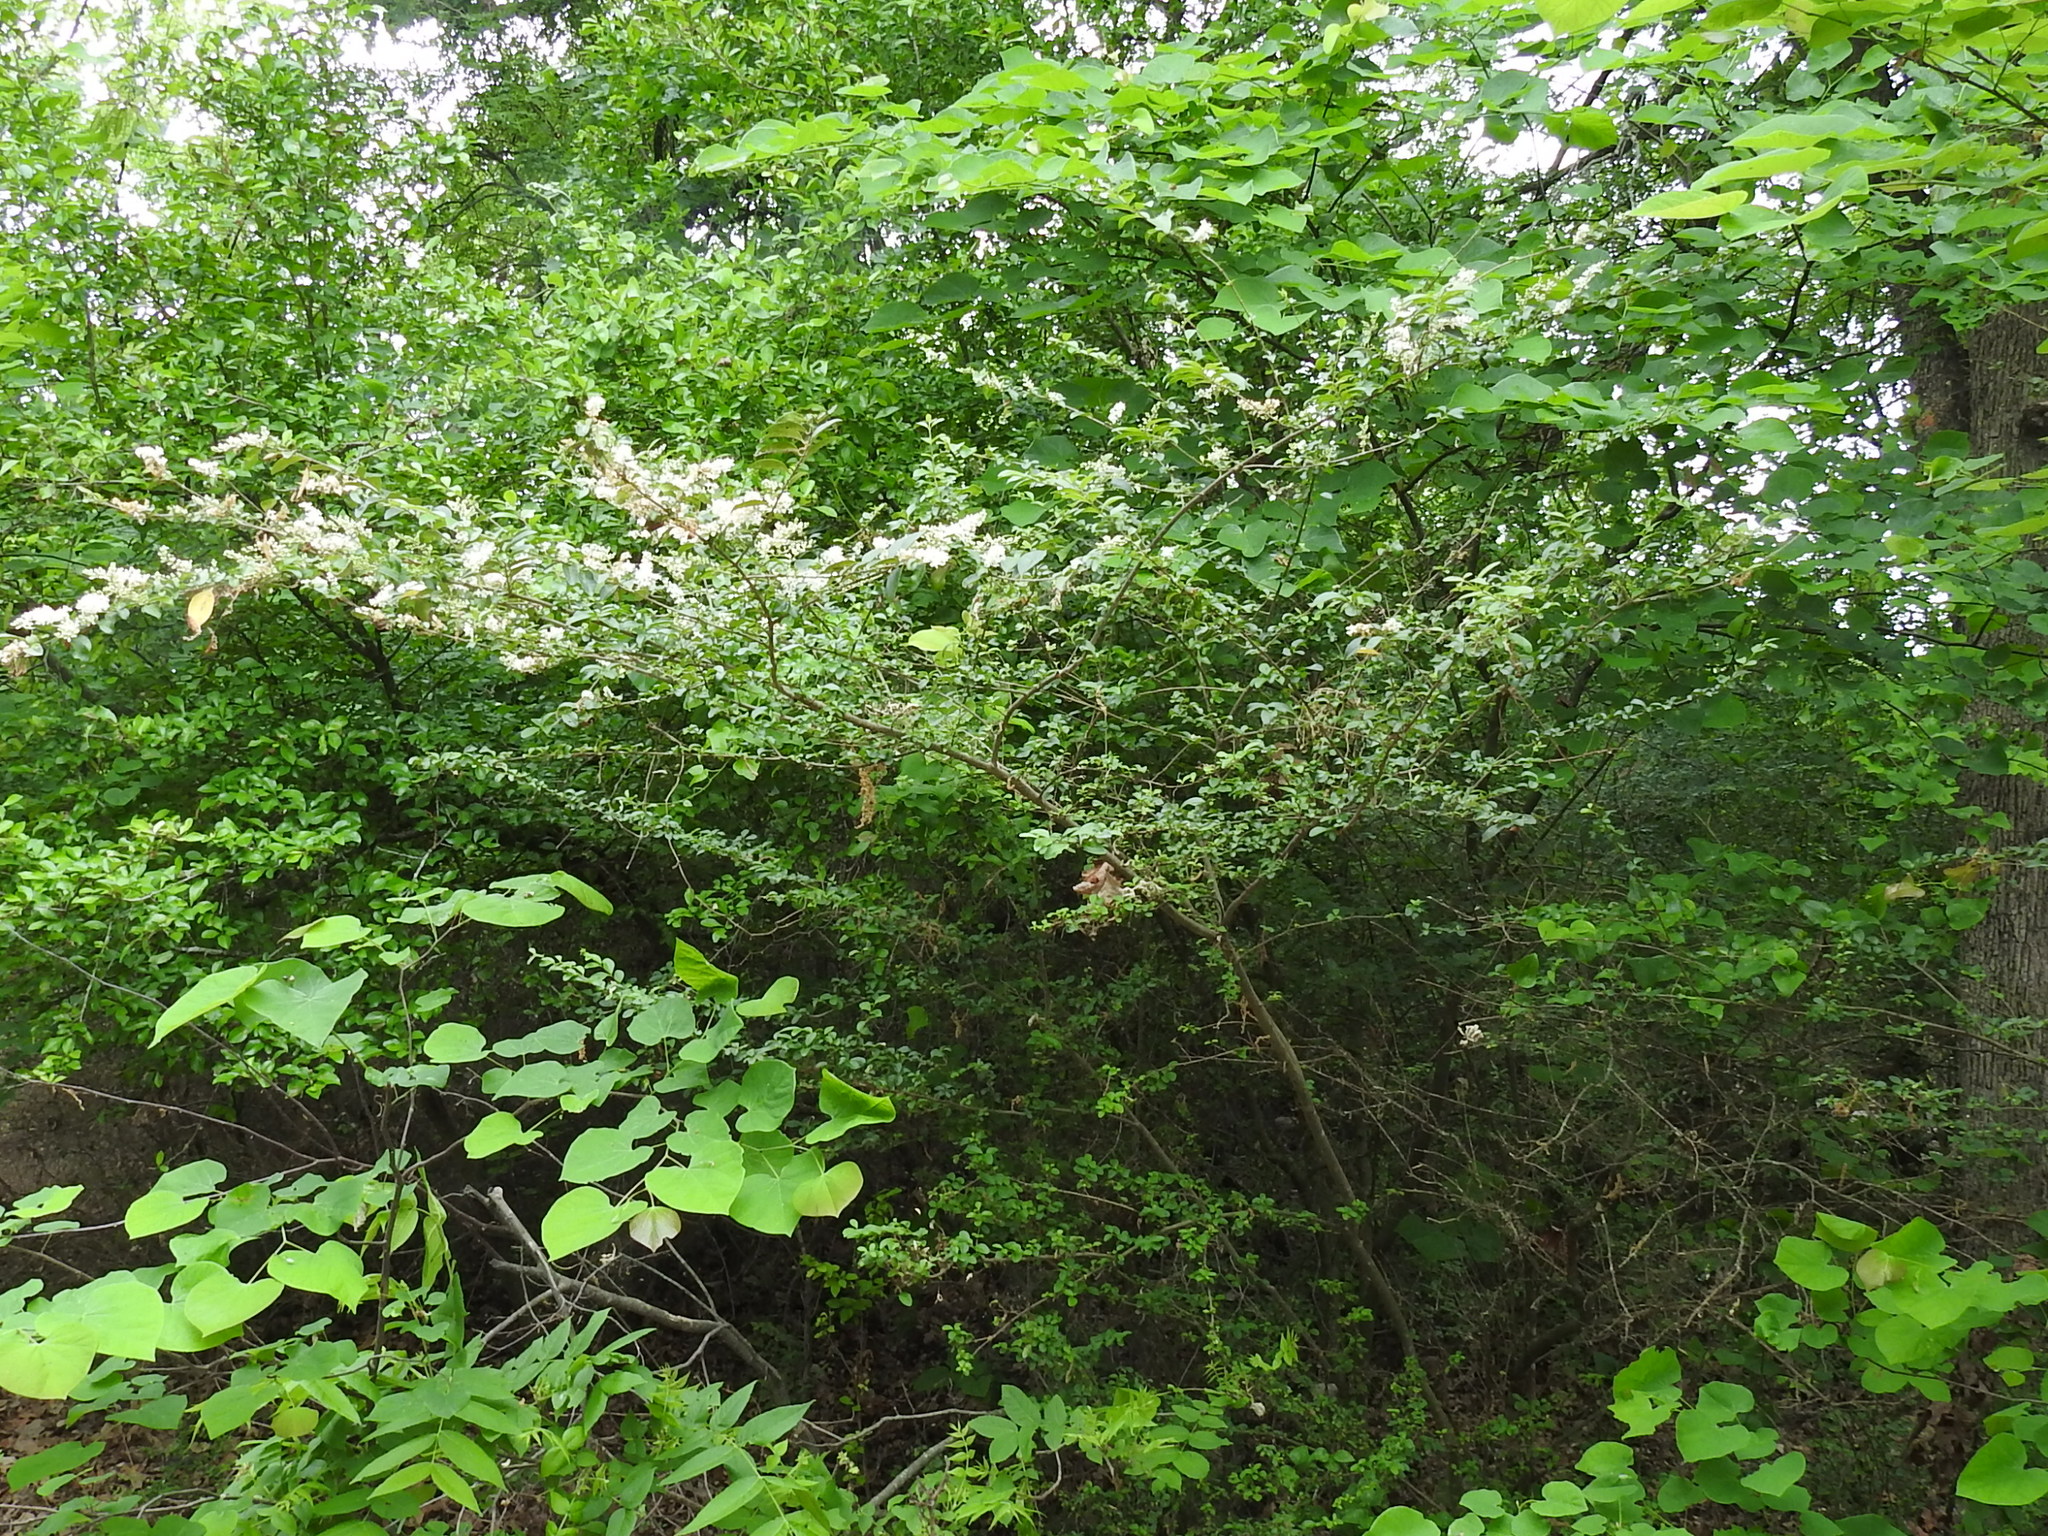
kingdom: Plantae
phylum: Tracheophyta
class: Magnoliopsida
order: Lamiales
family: Oleaceae
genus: Ligustrum
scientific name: Ligustrum sinense
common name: Chinese privet
